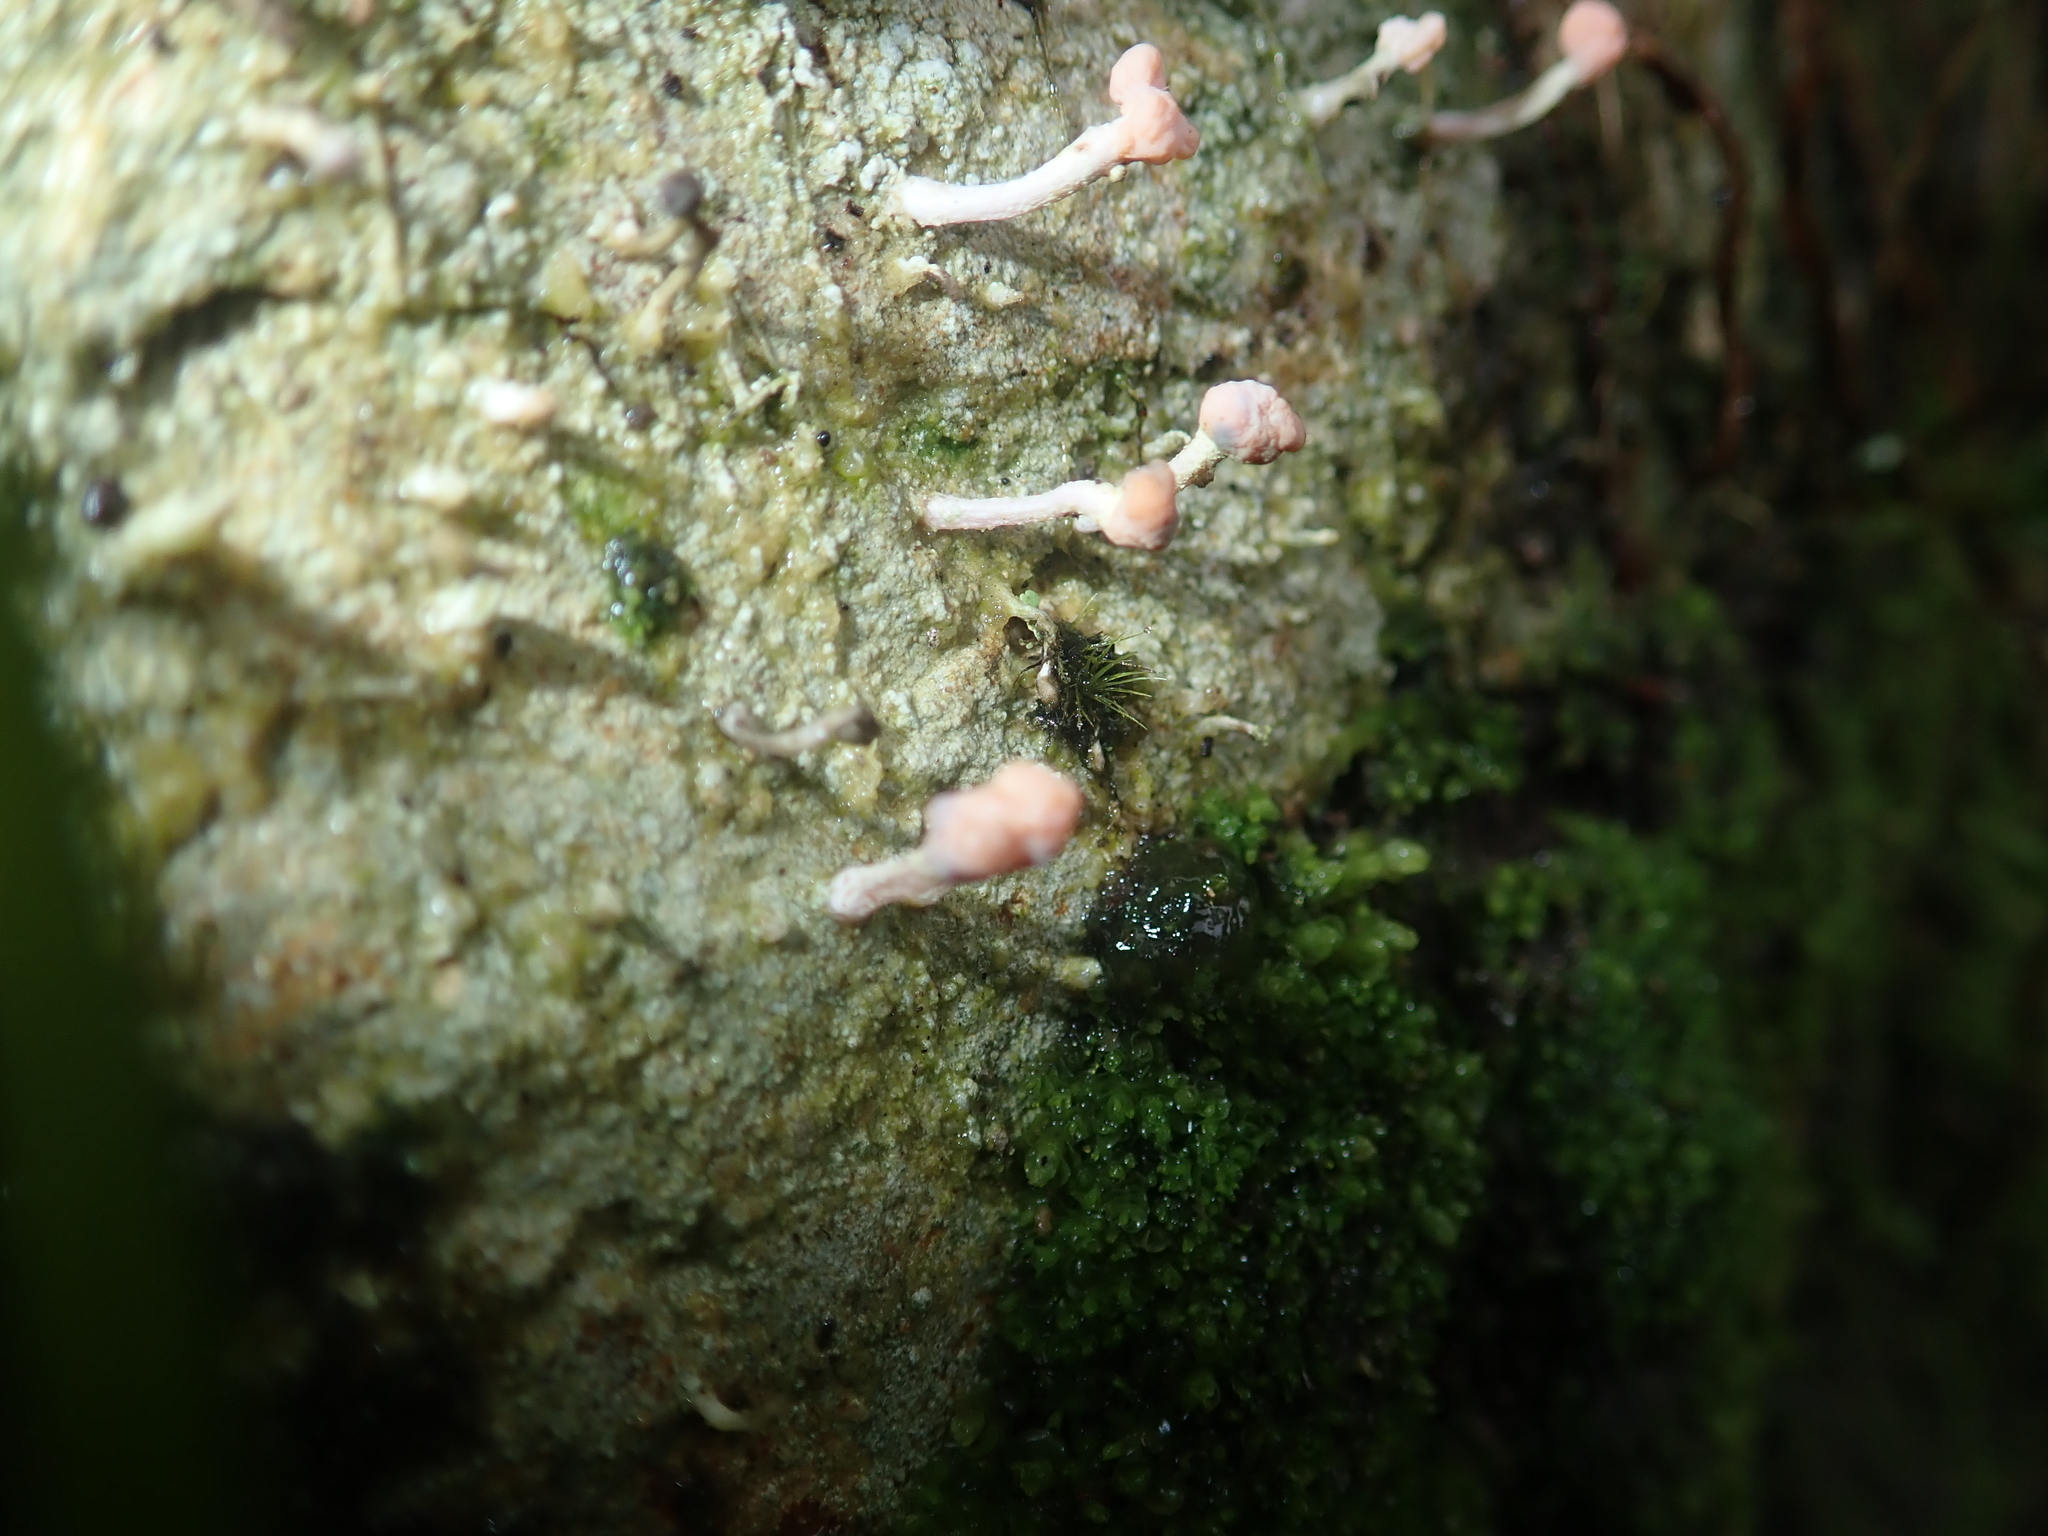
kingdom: Fungi
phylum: Ascomycota
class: Lecanoromycetes
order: Pertusariales
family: Icmadophilaceae
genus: Dibaeis
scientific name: Dibaeis arcuata
